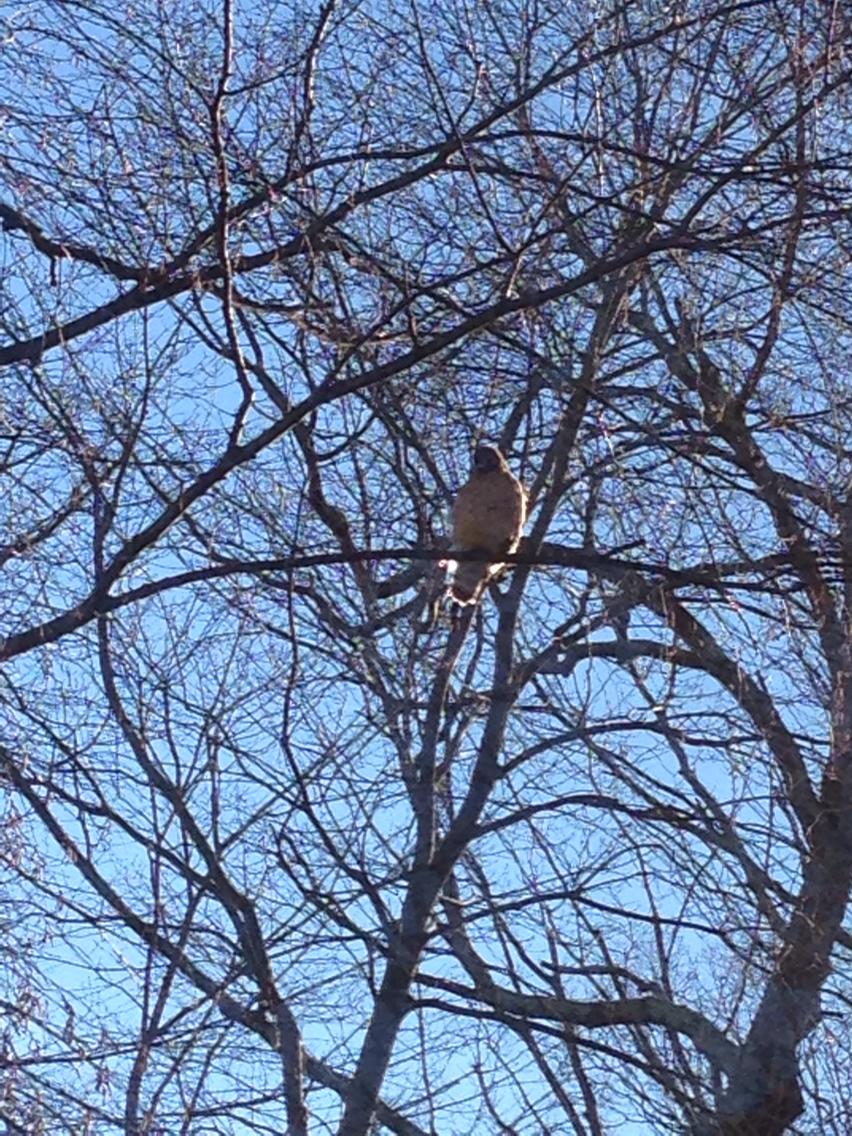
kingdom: Animalia
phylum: Chordata
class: Aves
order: Accipitriformes
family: Accipitridae
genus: Buteo
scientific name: Buteo lineatus
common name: Red-shouldered hawk
